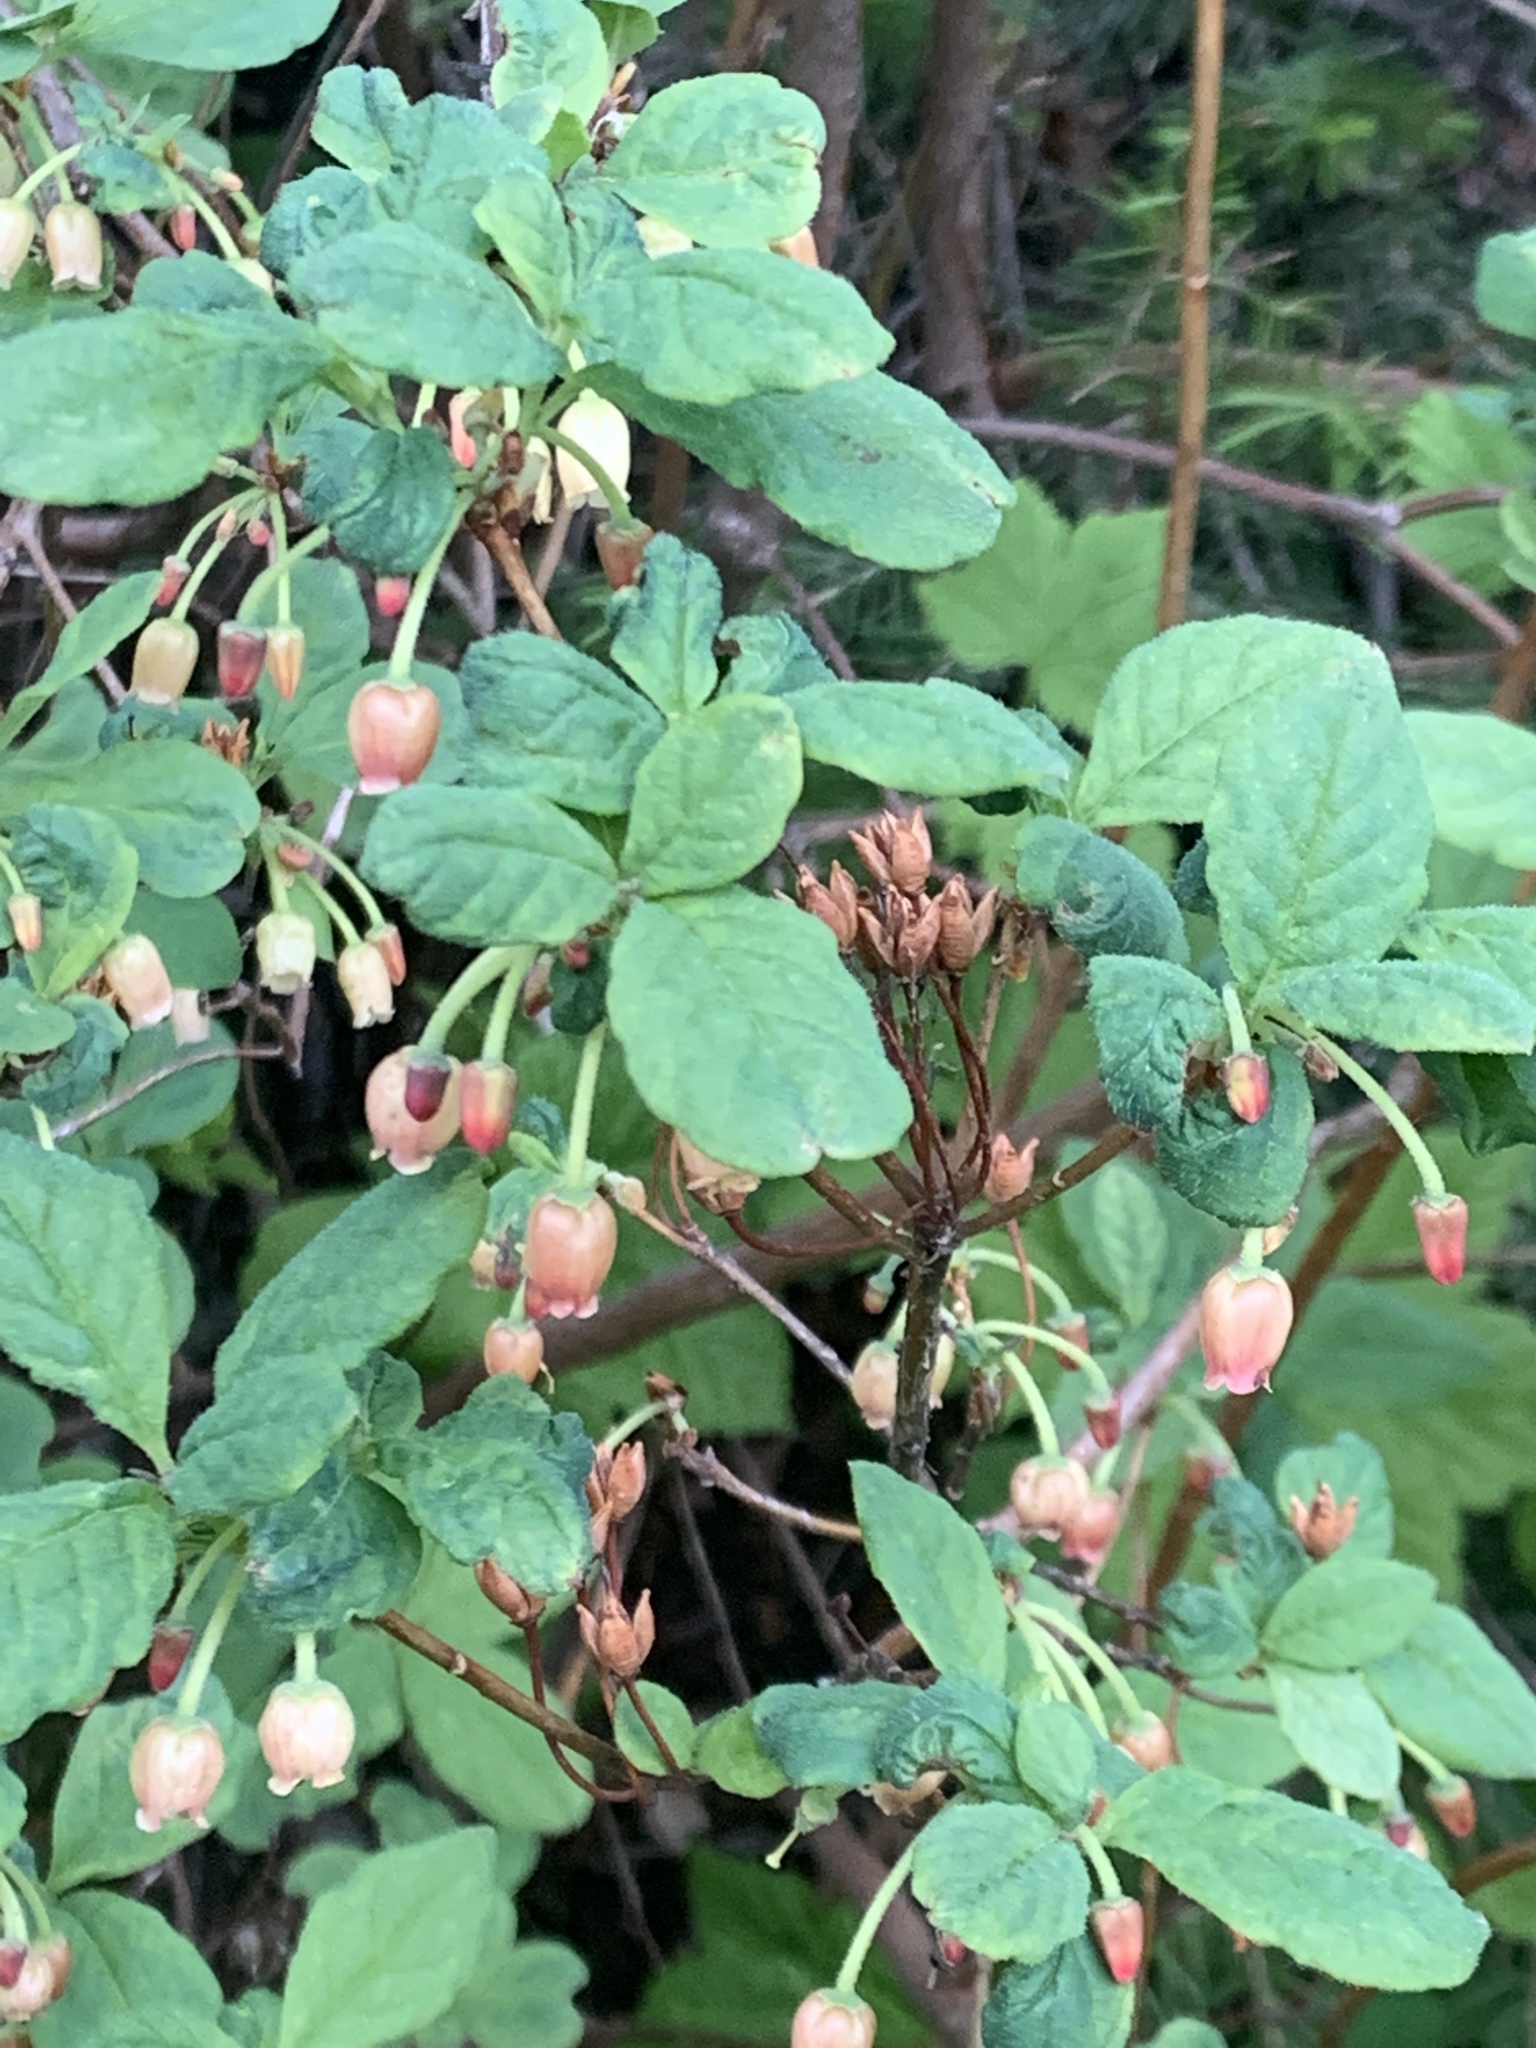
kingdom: Plantae
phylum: Tracheophyta
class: Magnoliopsida
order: Ericales
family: Ericaceae
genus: Rhododendron
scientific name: Rhododendron menziesii
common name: Pacific menziesia
